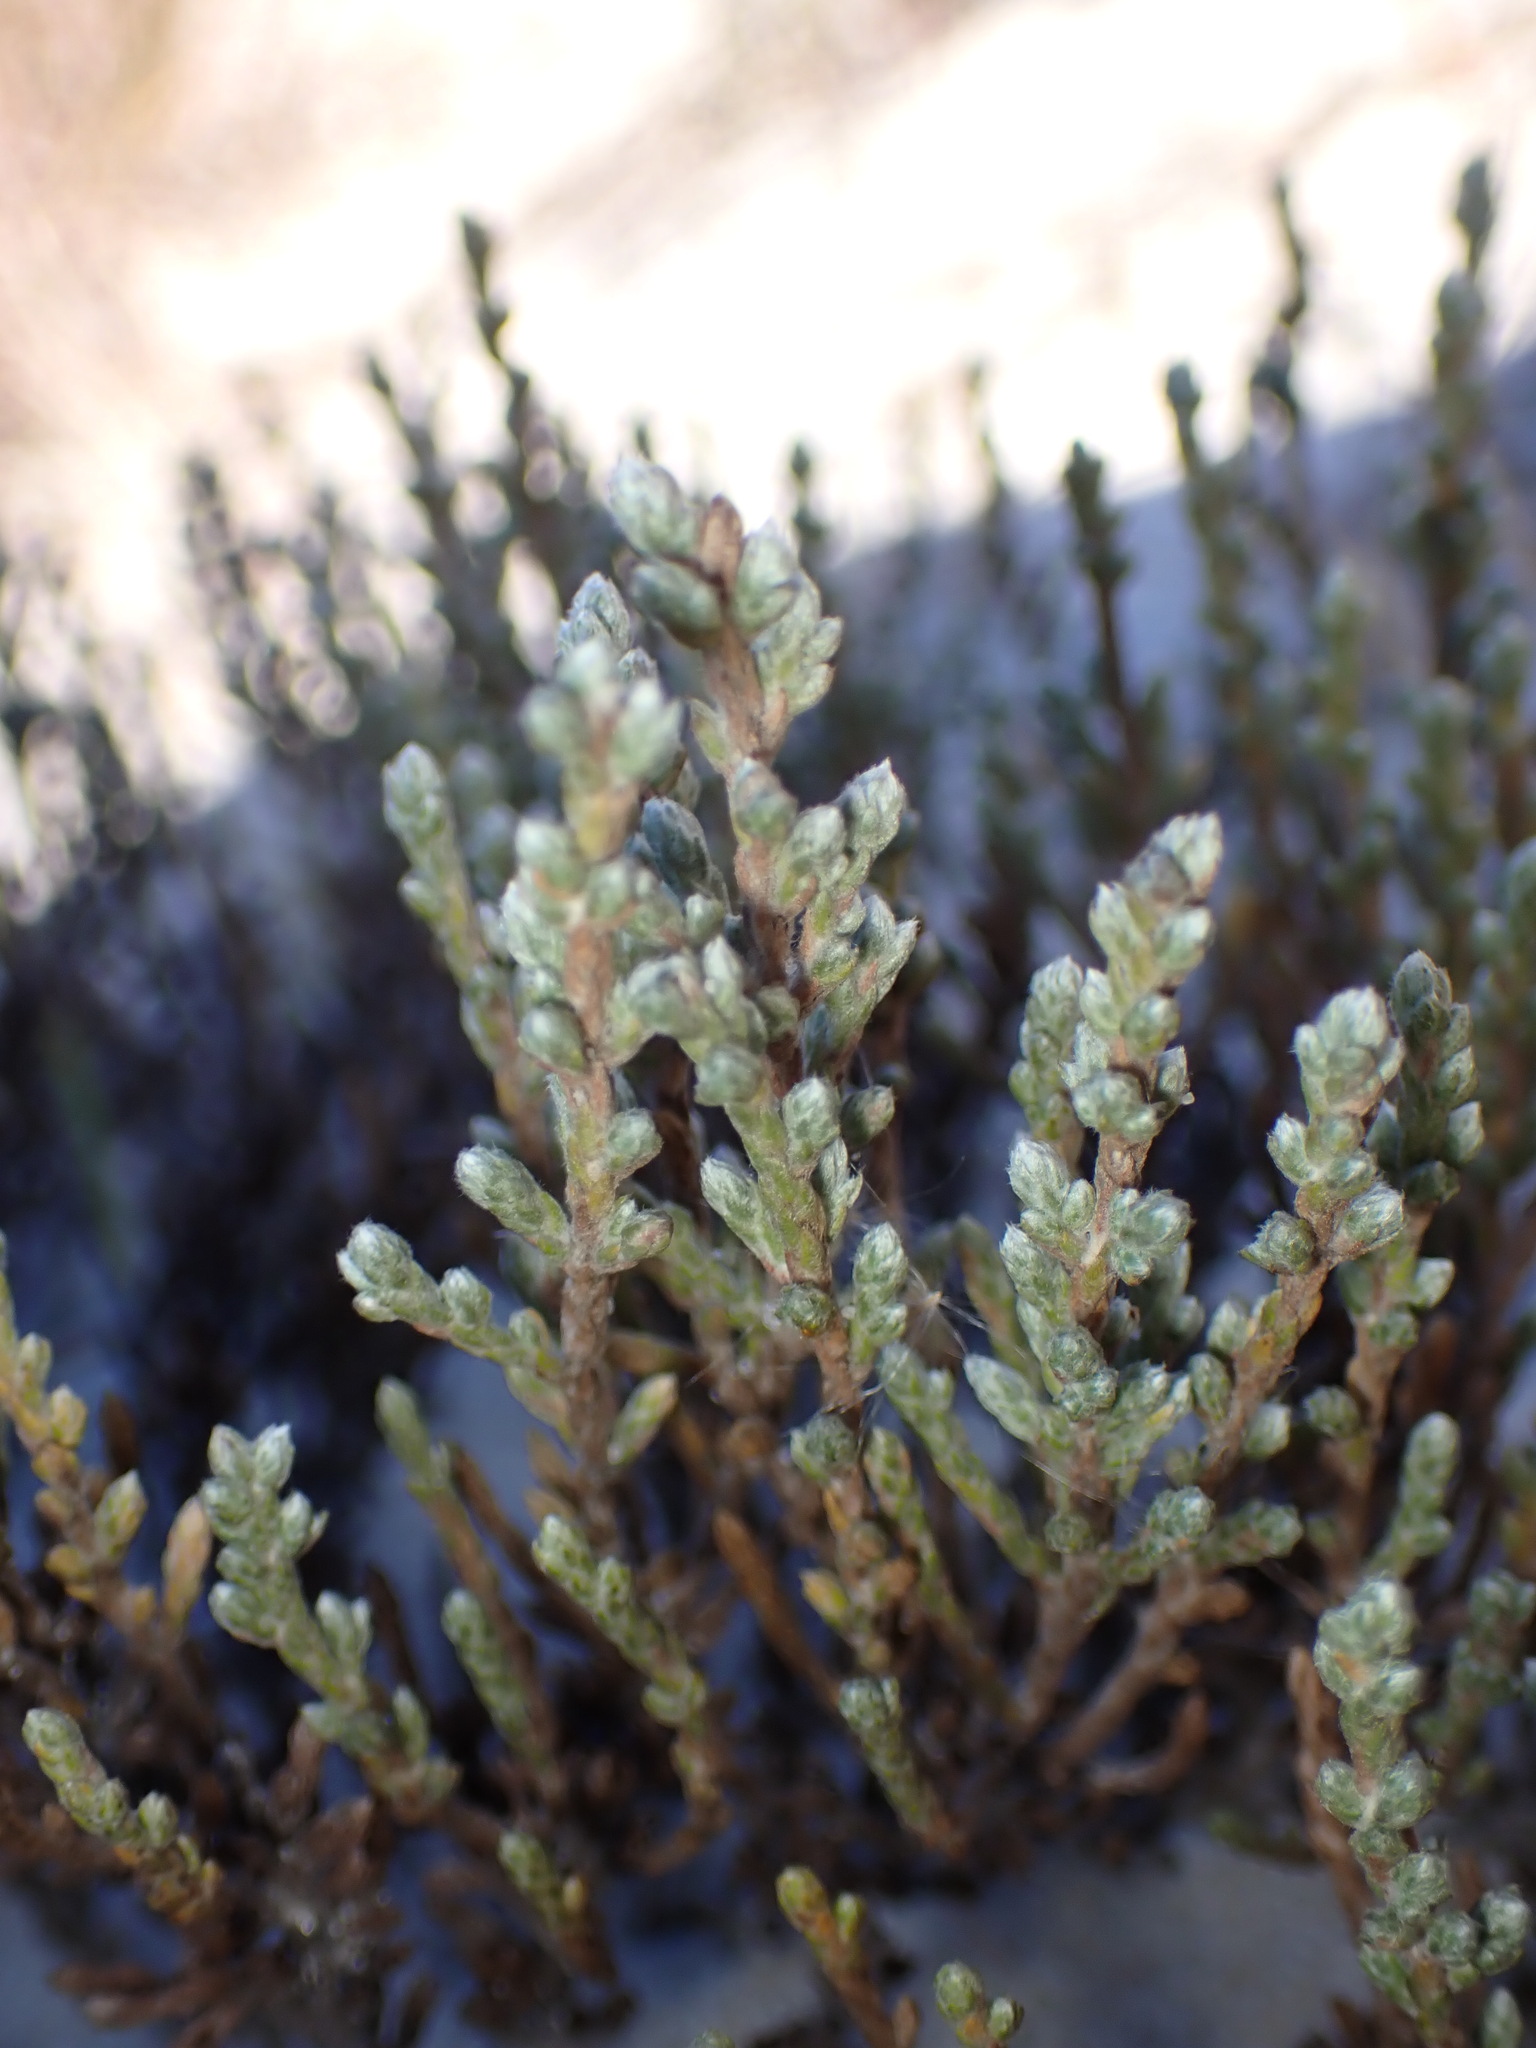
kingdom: Plantae
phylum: Tracheophyta
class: Magnoliopsida
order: Malvales
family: Cistaceae
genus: Hudsonia
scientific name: Hudsonia tomentosa
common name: Beach-heath
